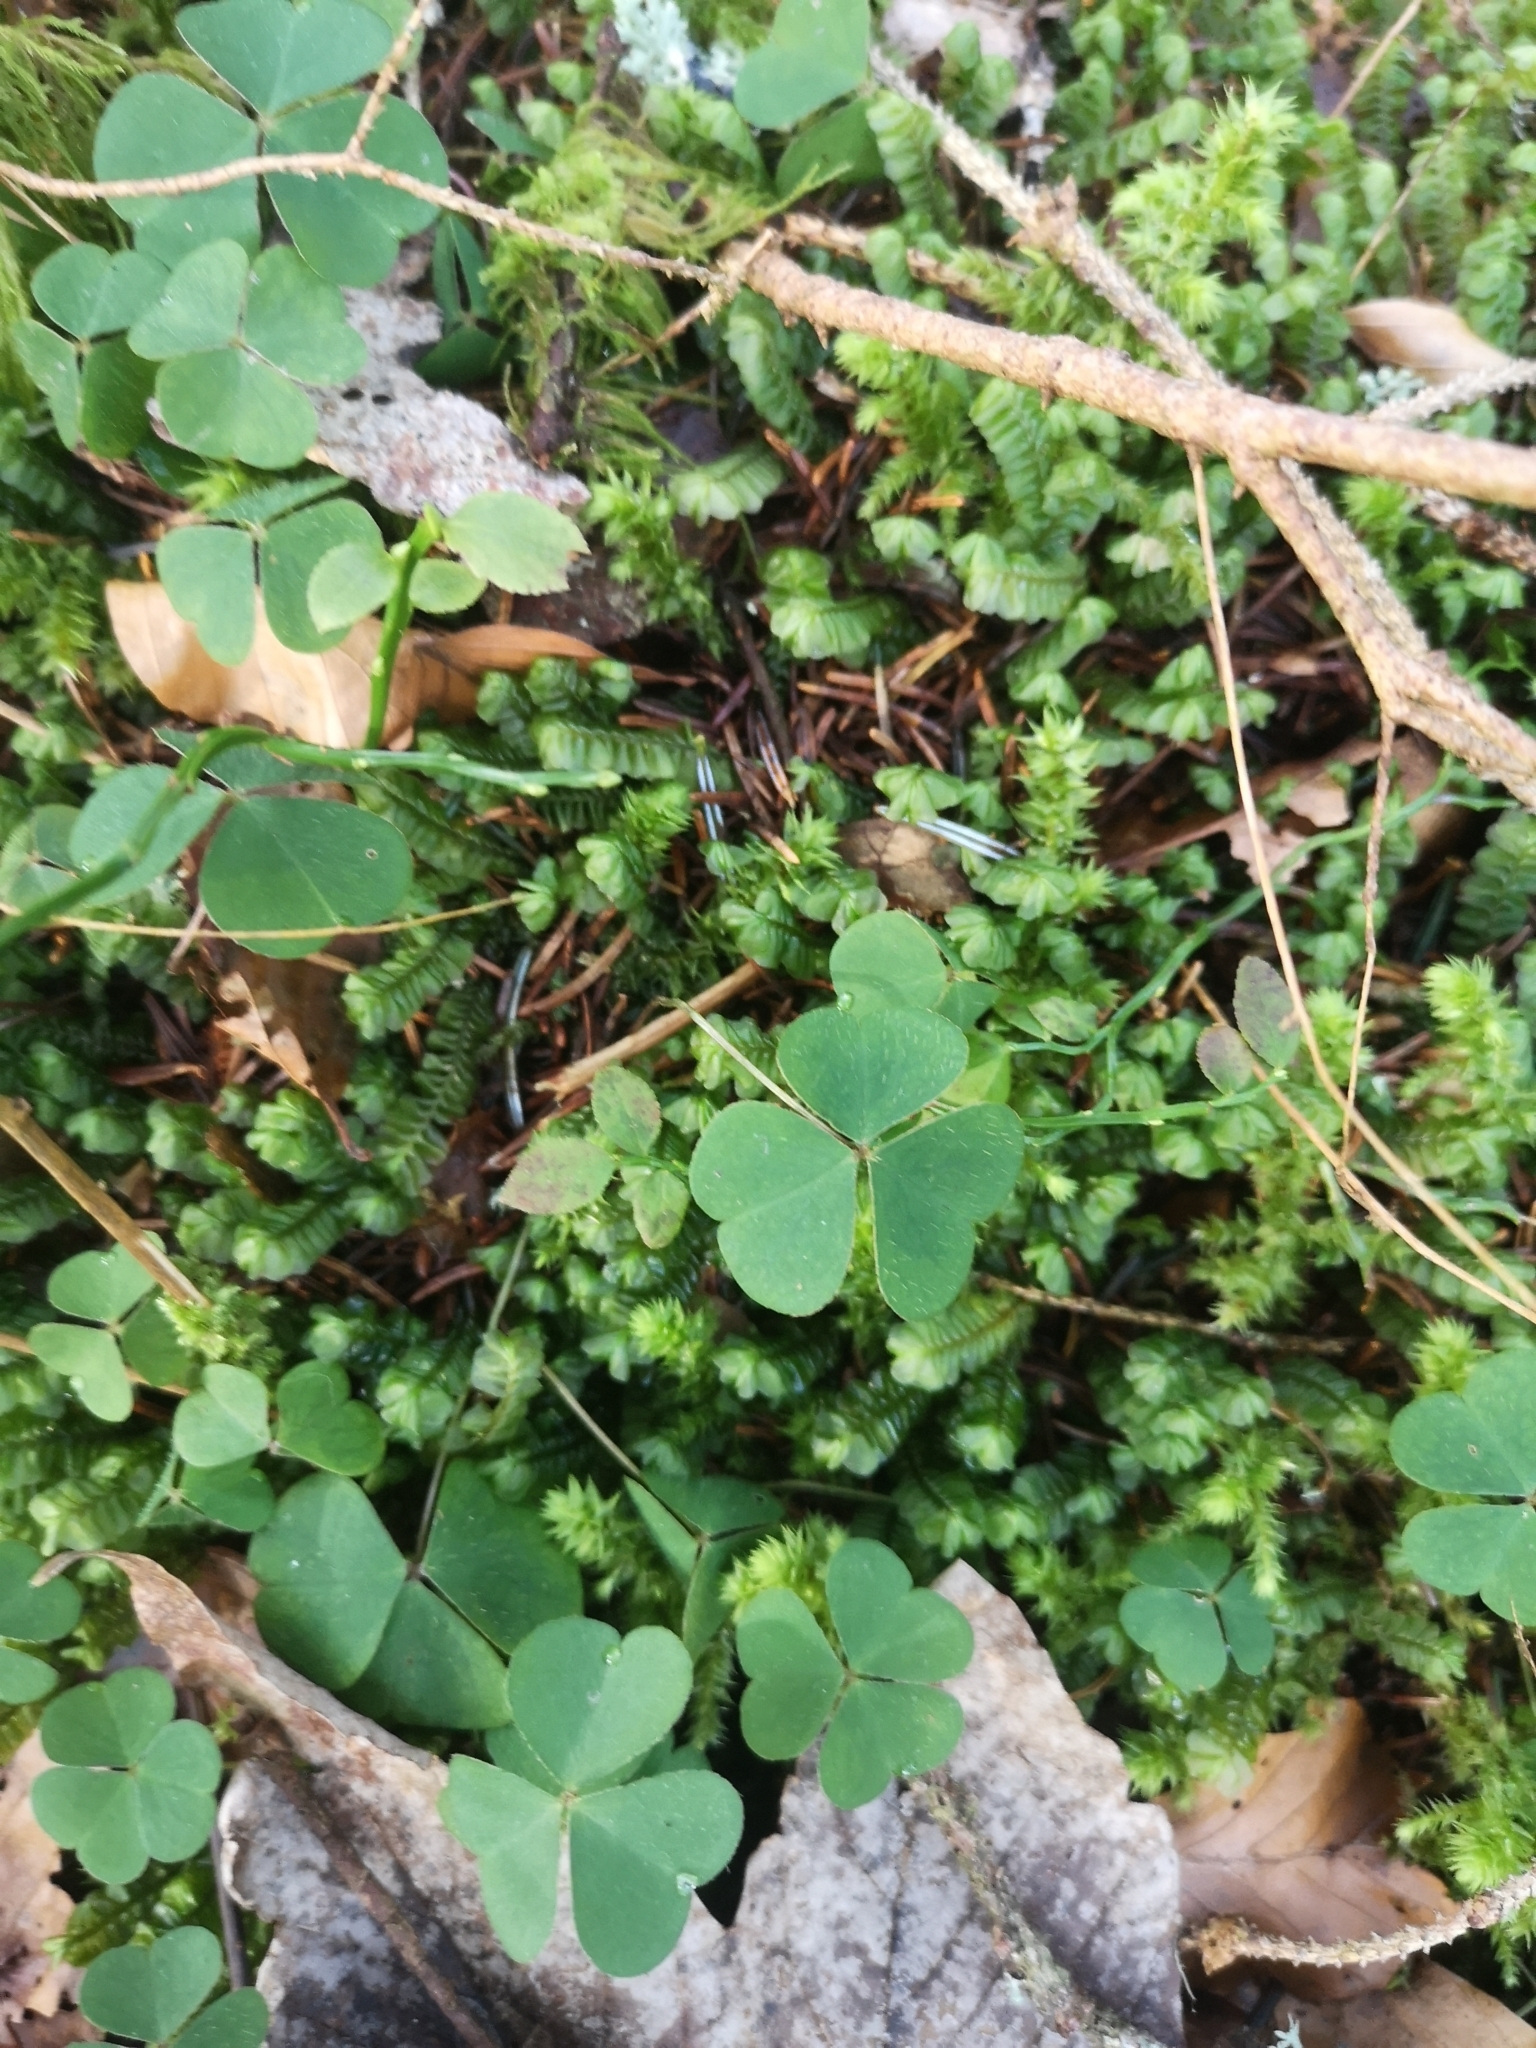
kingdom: Plantae
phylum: Tracheophyta
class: Magnoliopsida
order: Oxalidales
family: Oxalidaceae
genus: Oxalis
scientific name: Oxalis acetosella
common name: Wood-sorrel
